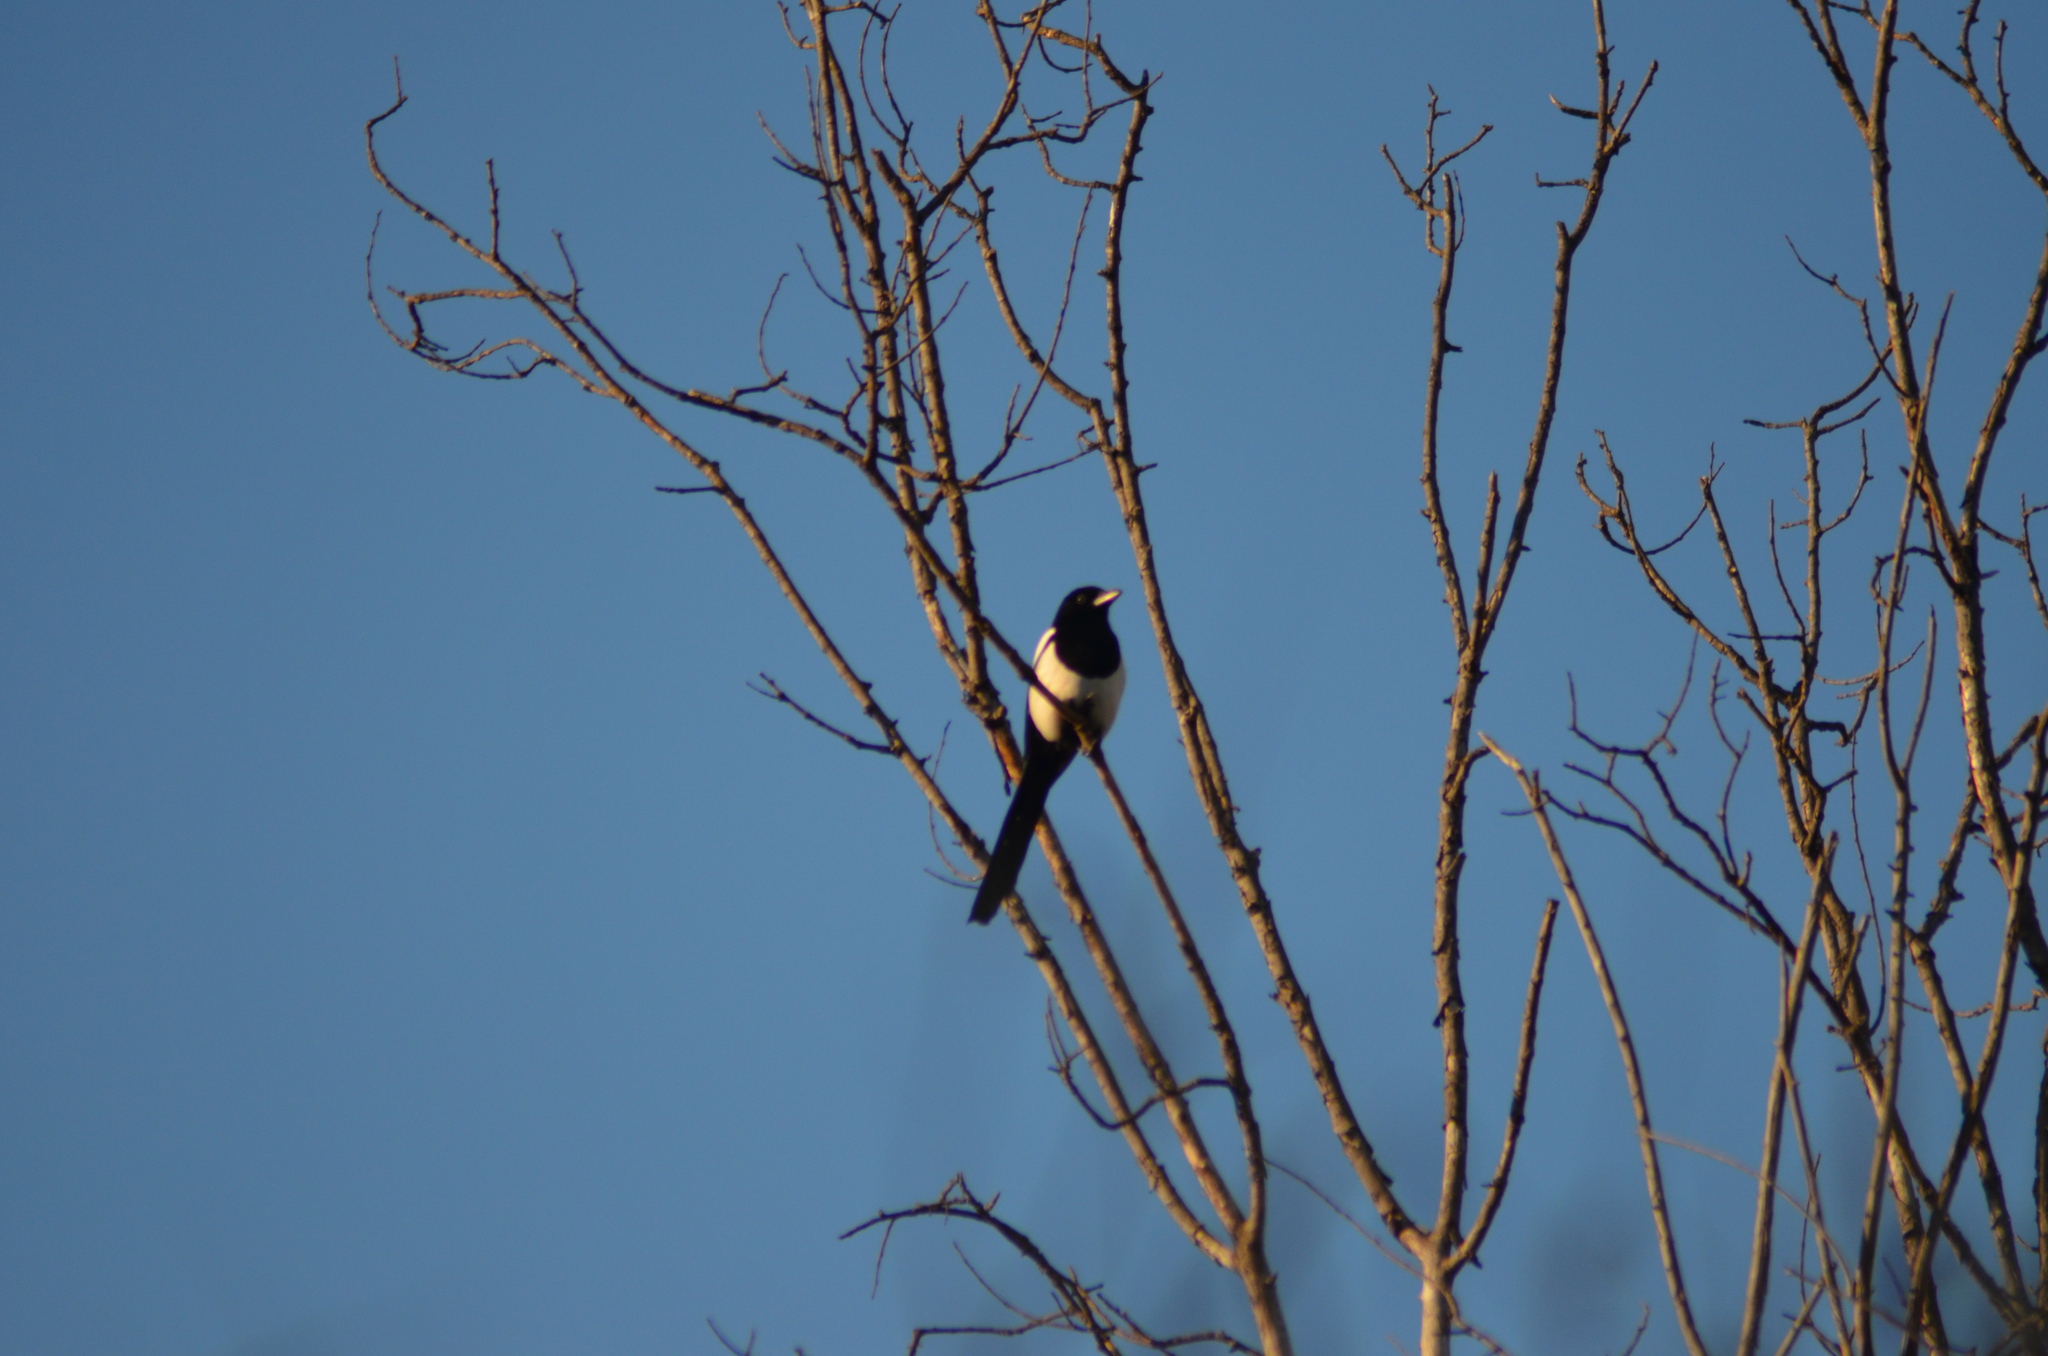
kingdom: Animalia
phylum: Chordata
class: Aves
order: Passeriformes
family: Corvidae
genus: Pica
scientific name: Pica pica
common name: Eurasian magpie
